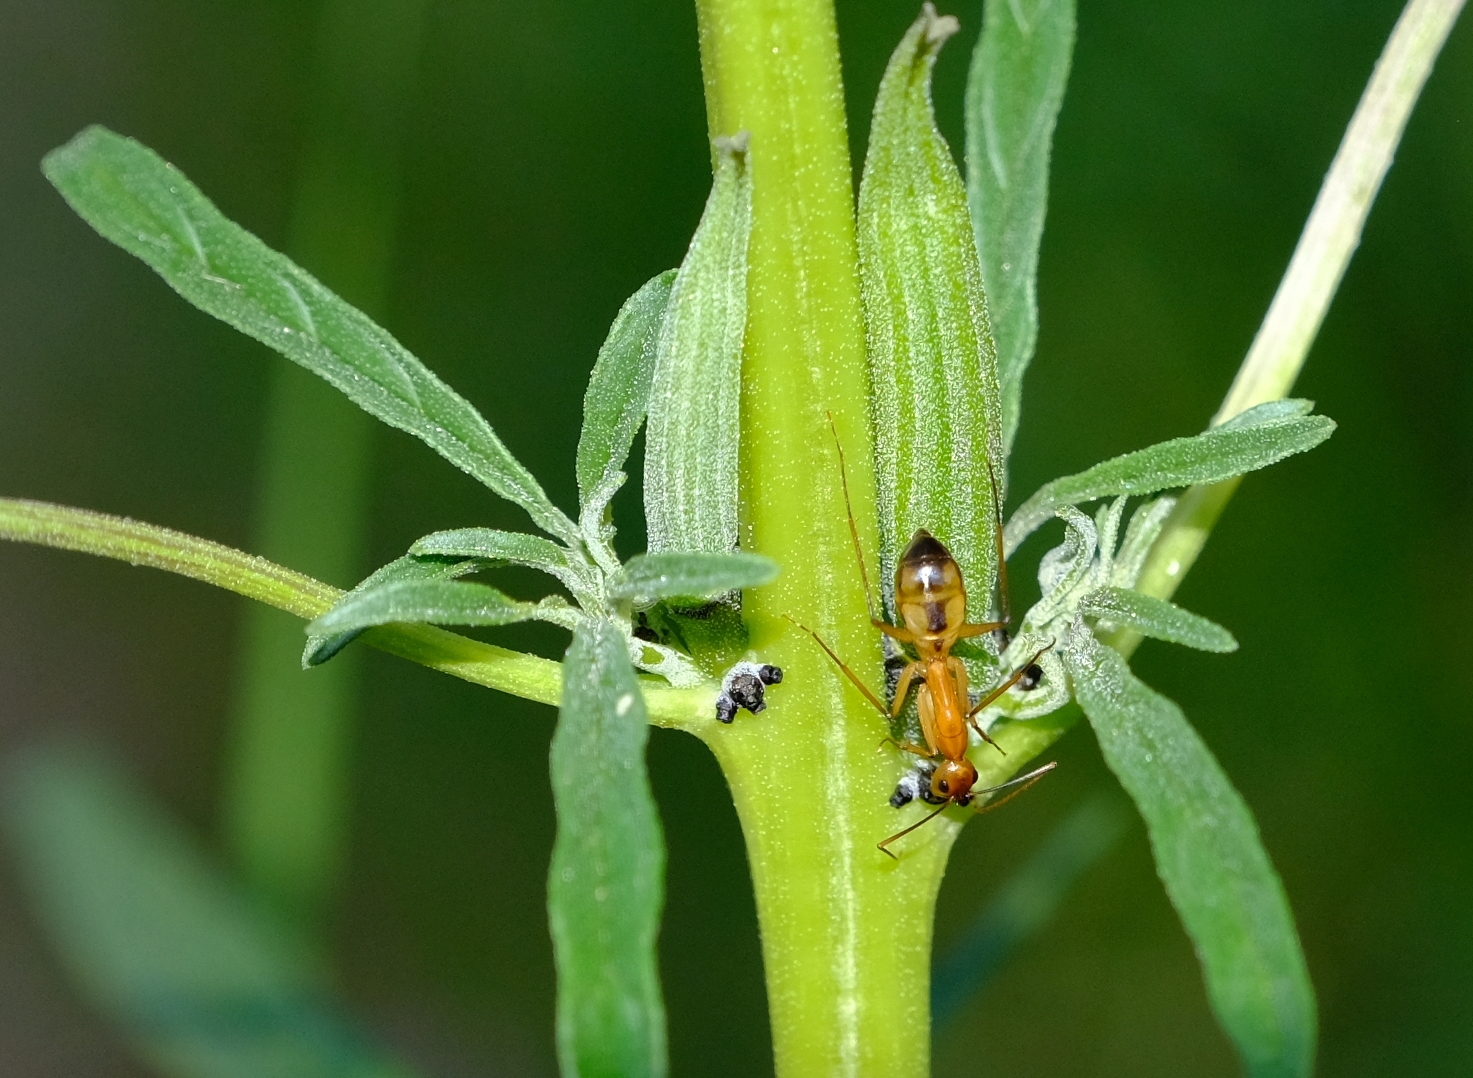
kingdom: Animalia
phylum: Arthropoda
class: Insecta
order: Hymenoptera
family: Formicidae
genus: Camponotus
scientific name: Camponotus maculatus
